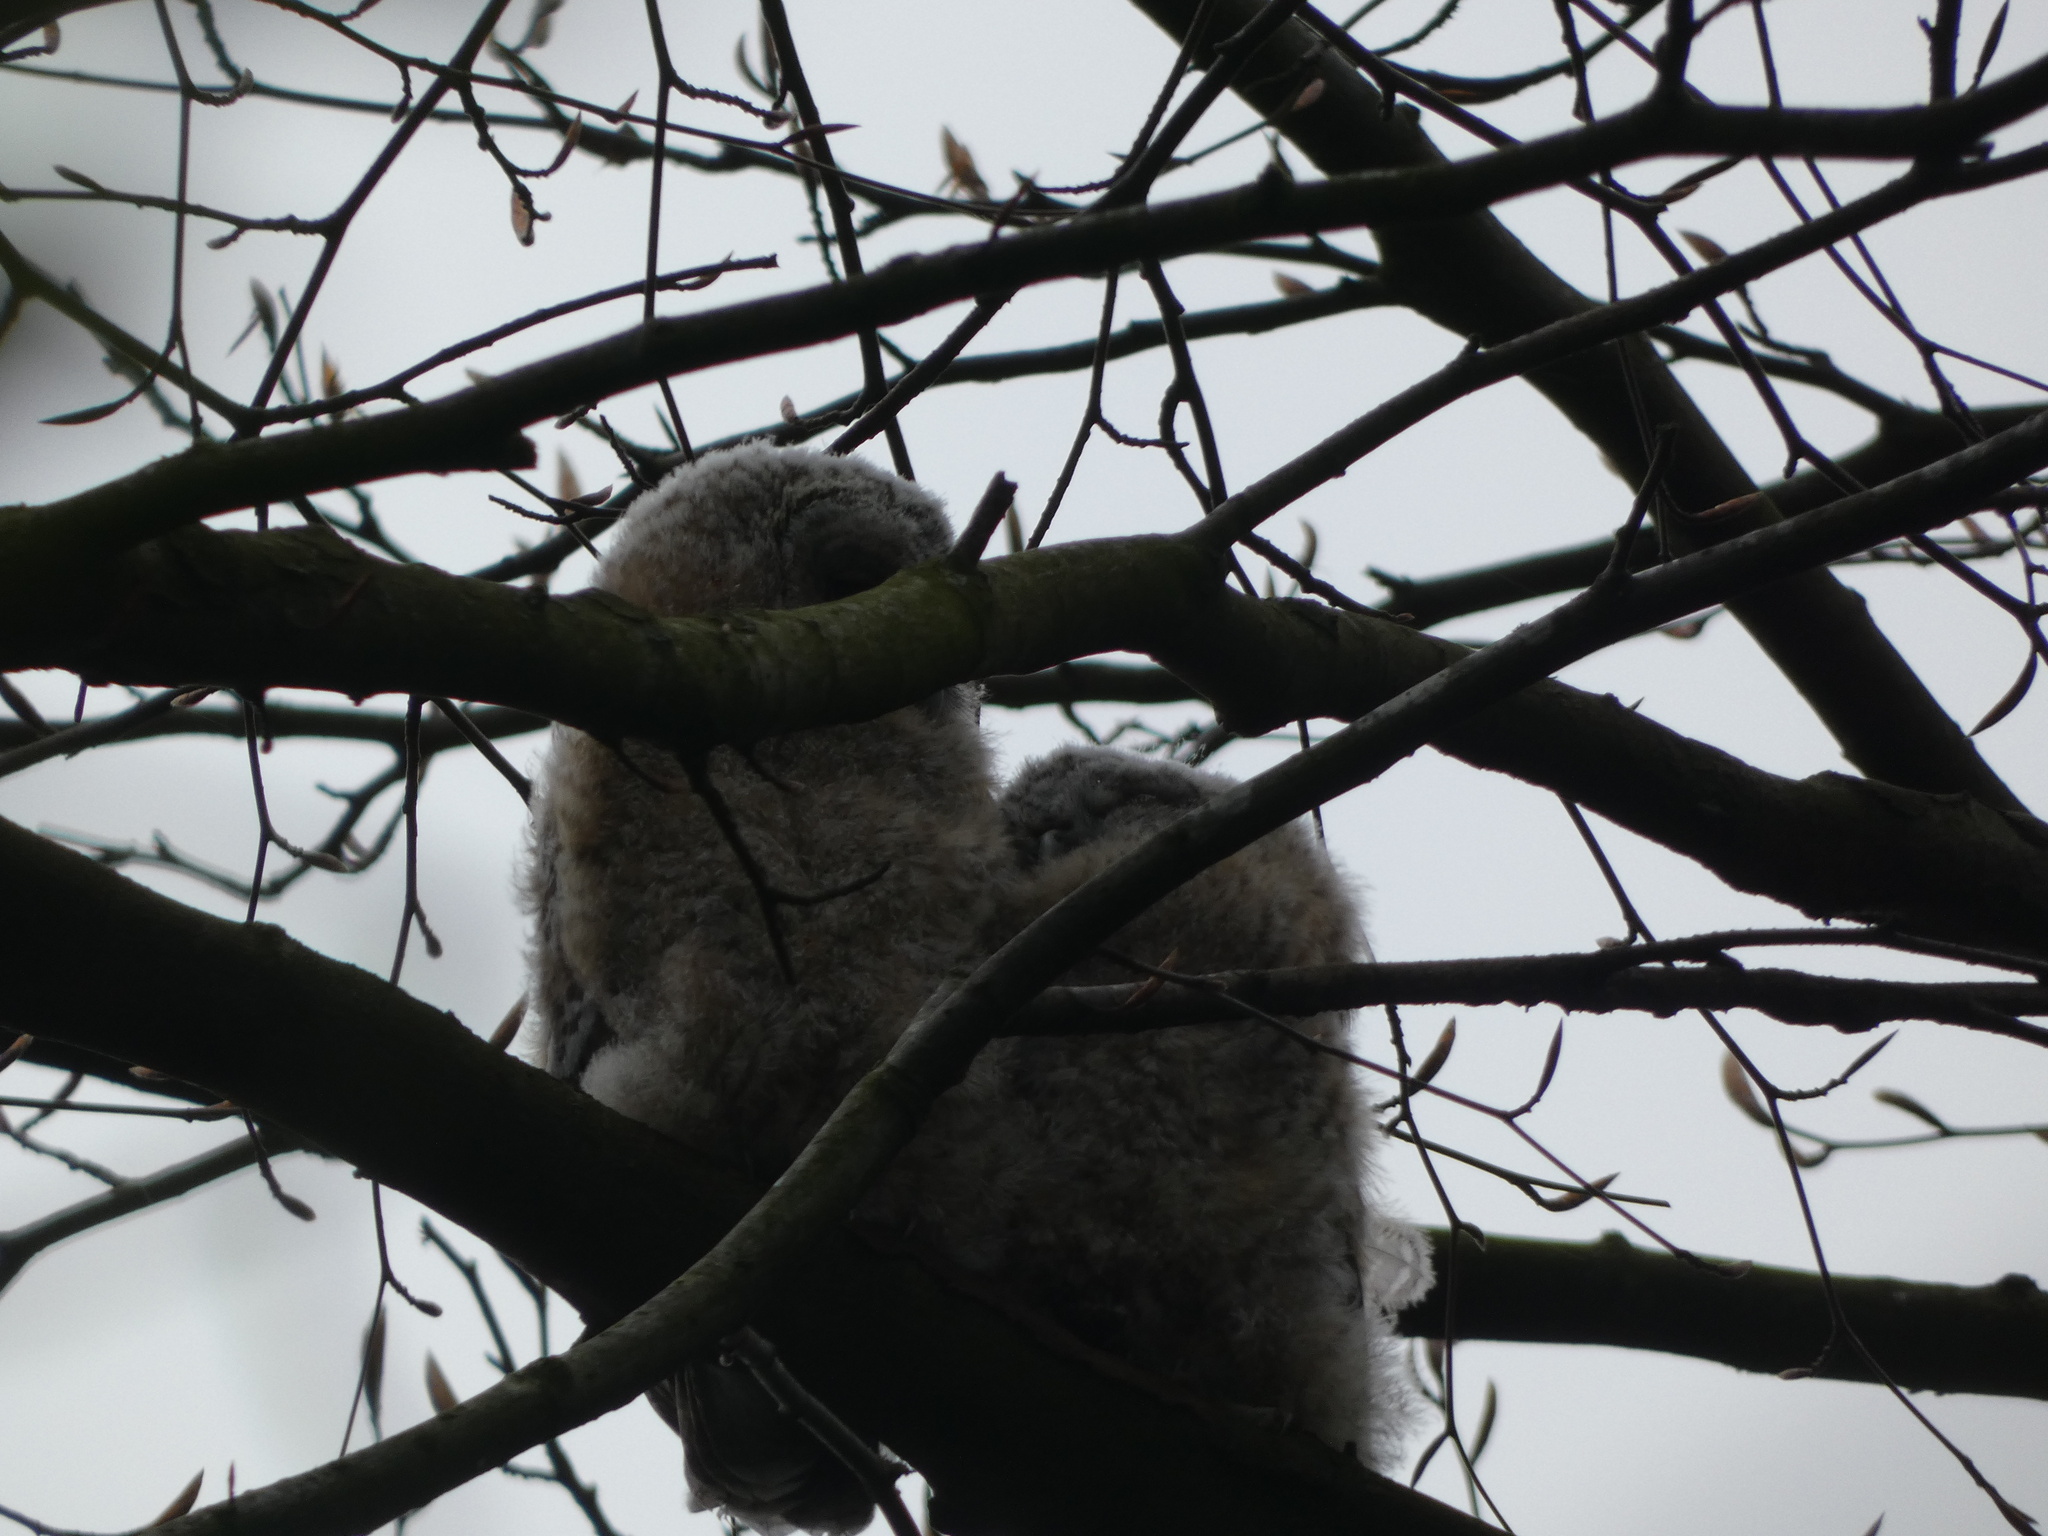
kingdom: Animalia
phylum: Chordata
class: Aves
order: Strigiformes
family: Strigidae
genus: Strix
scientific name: Strix aluco
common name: Tawny owl
